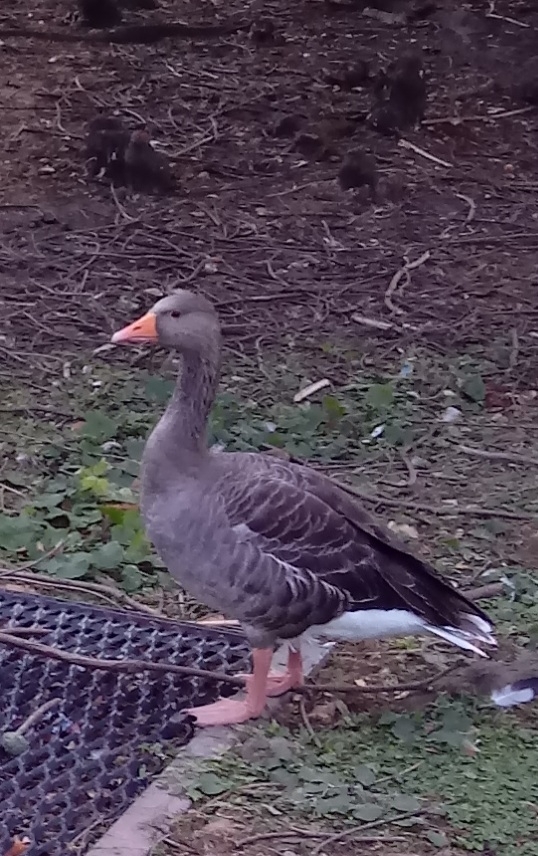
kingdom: Animalia
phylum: Chordata
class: Aves
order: Anseriformes
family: Anatidae
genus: Anser
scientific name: Anser anser
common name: Greylag goose
